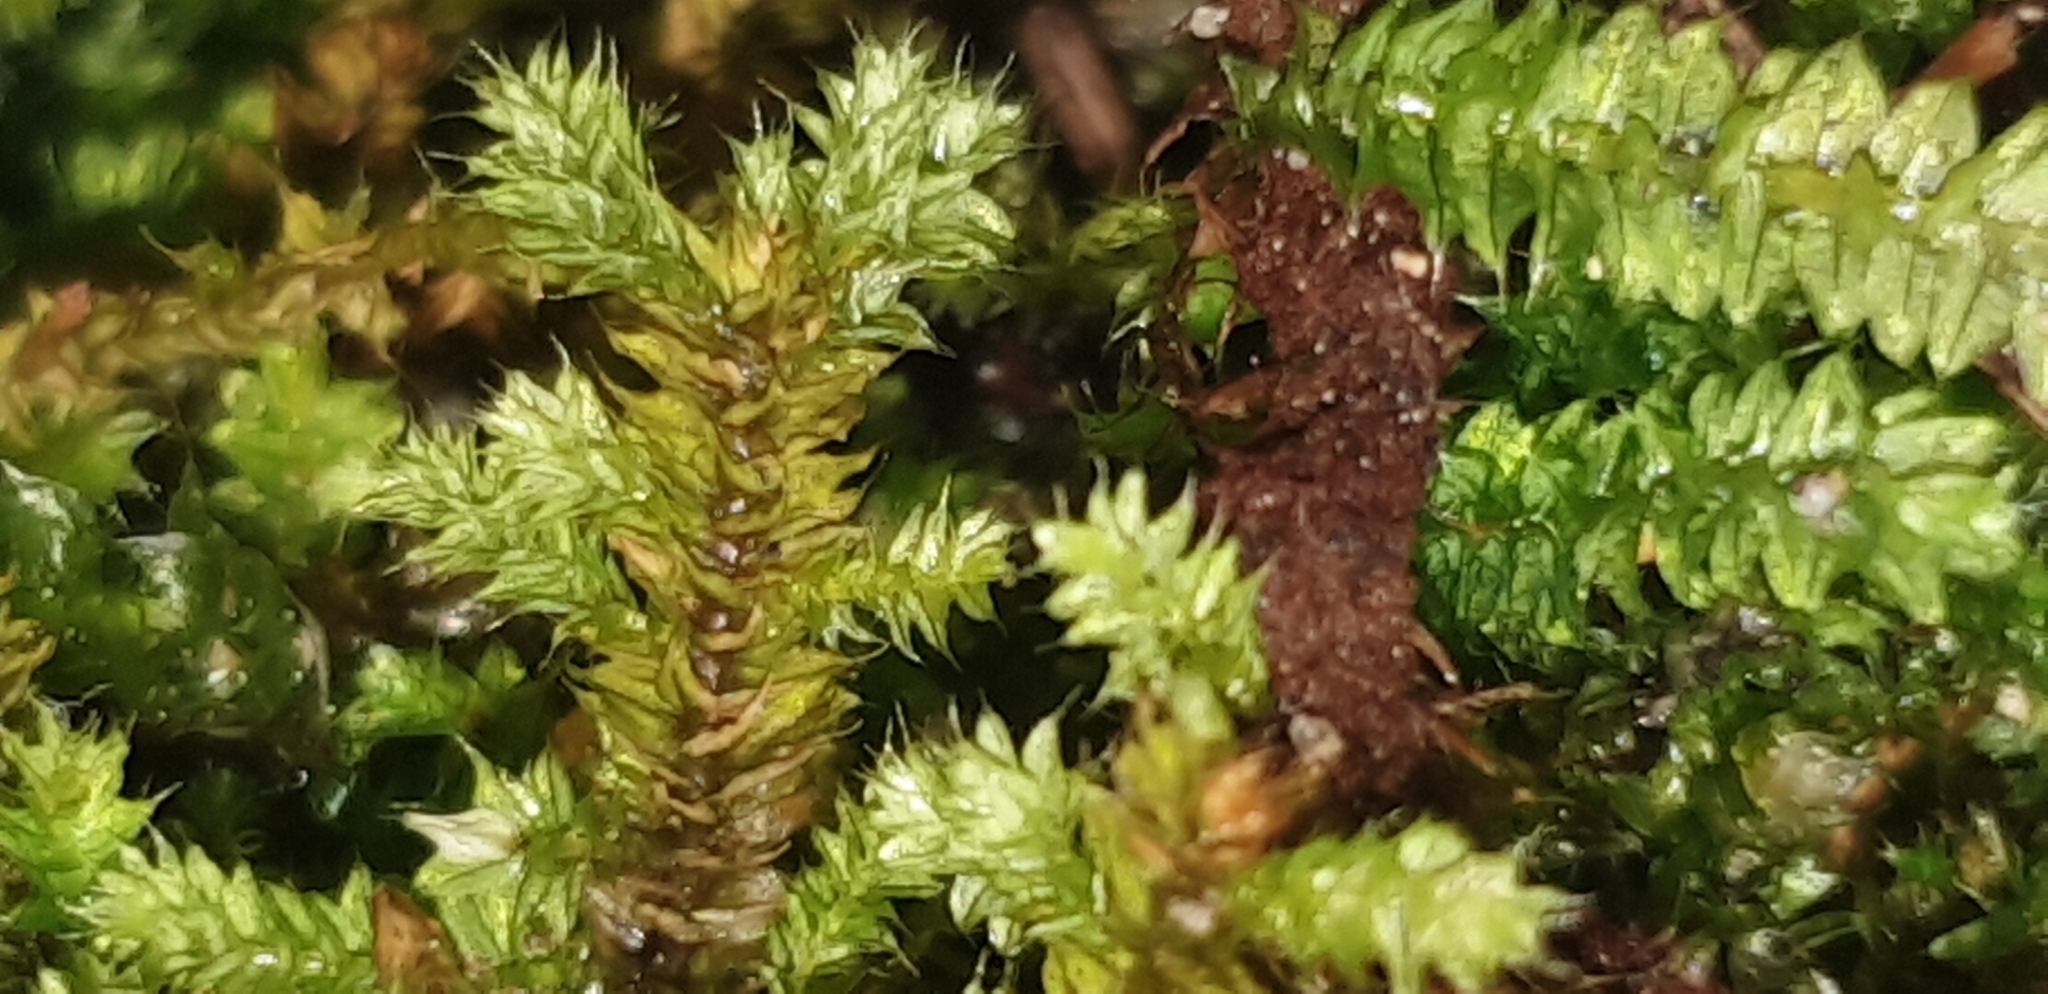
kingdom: Plantae
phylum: Bryophyta
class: Bryopsida
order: Hypnodendrales
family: Racopilaceae
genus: Racopilum
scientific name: Racopilum cuspidigerum
